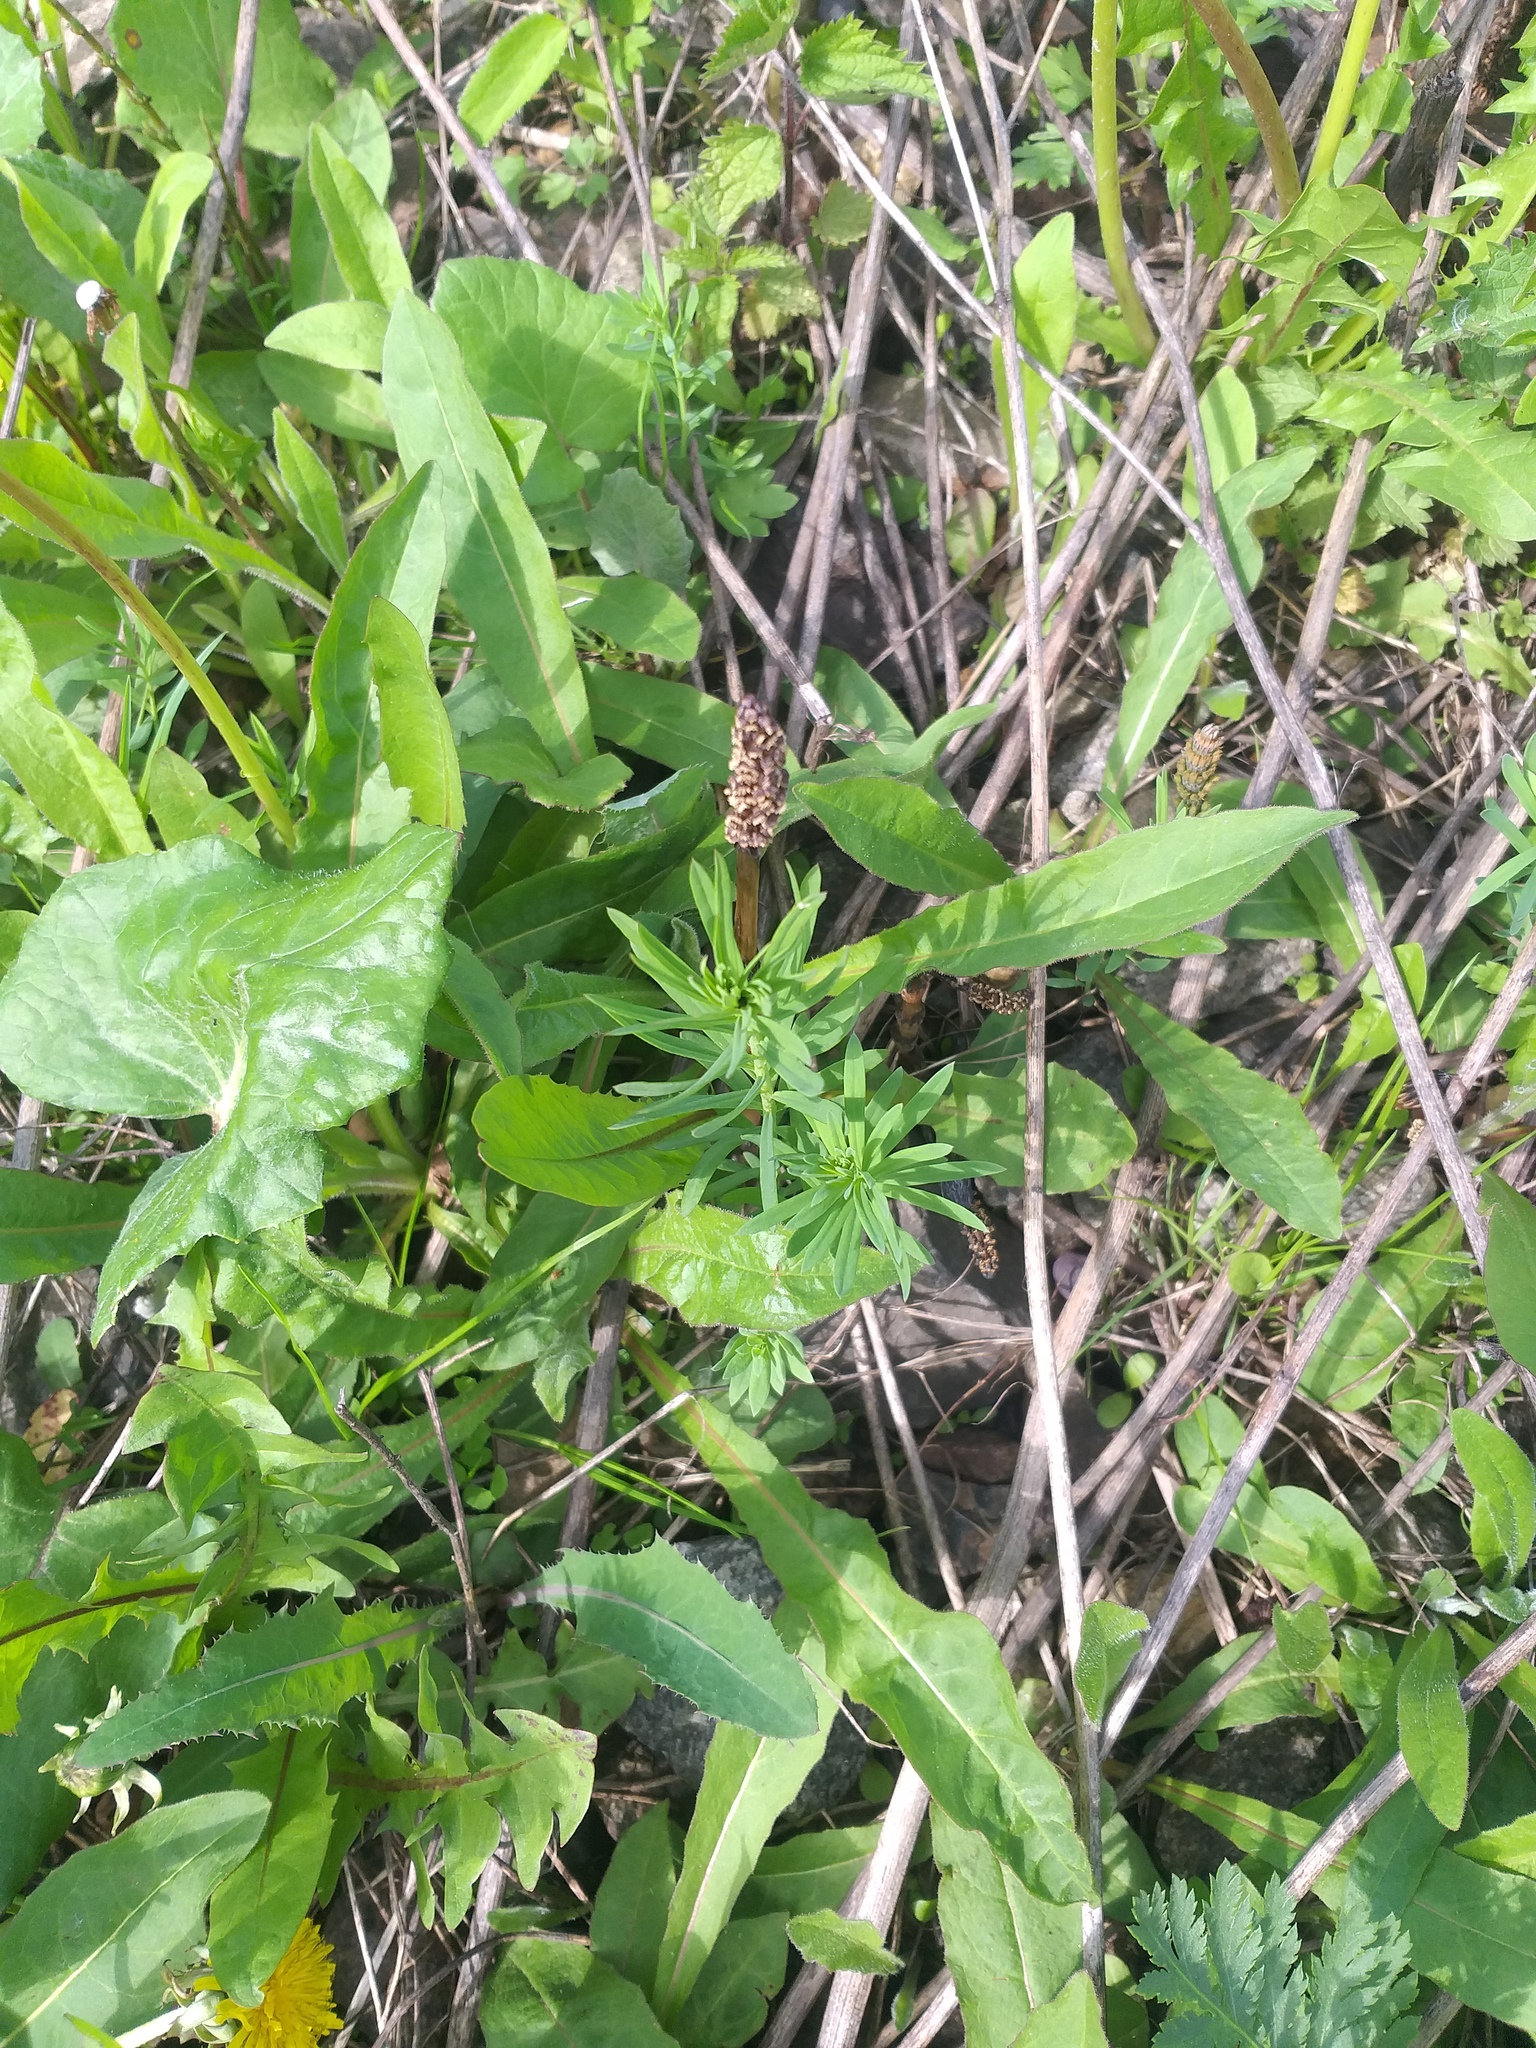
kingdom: Plantae
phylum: Tracheophyta
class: Magnoliopsida
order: Lamiales
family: Plantaginaceae
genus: Linaria
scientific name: Linaria vulgaris
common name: Butter and eggs
